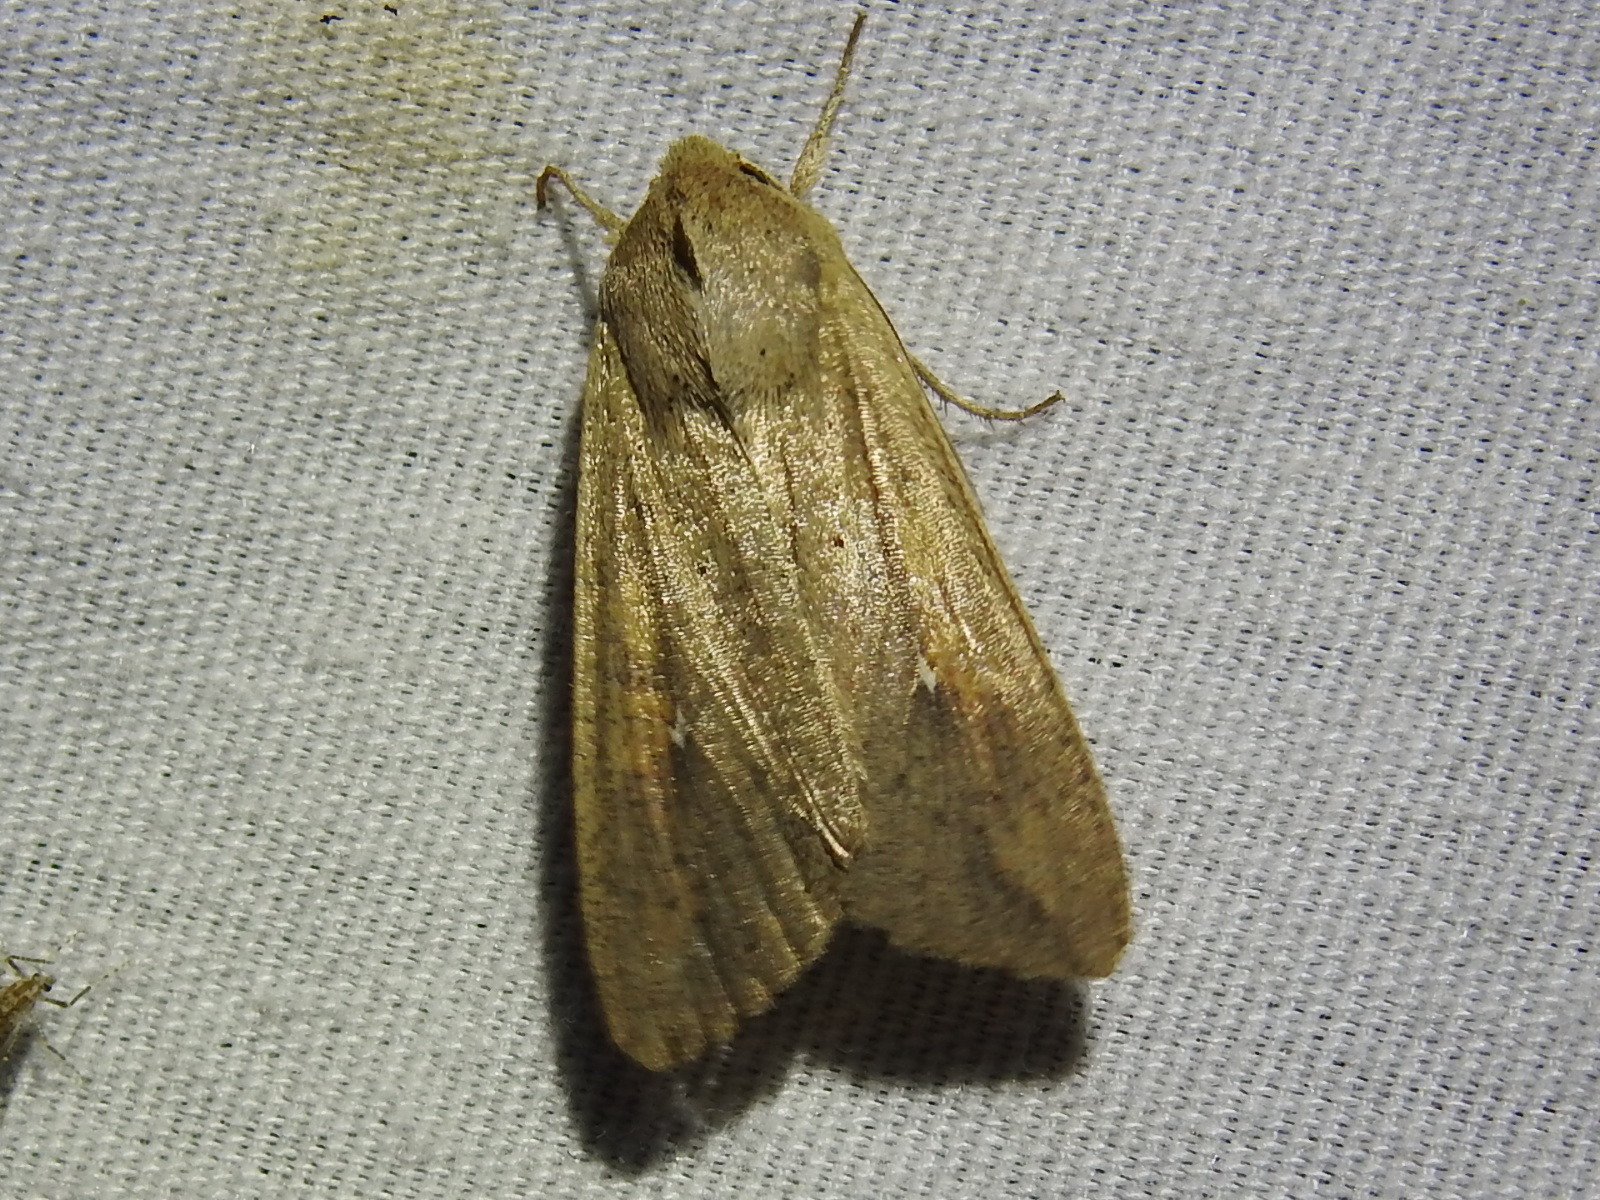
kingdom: Animalia
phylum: Arthropoda
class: Insecta
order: Lepidoptera
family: Noctuidae
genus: Mythimna
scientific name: Mythimna unipuncta
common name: White-speck
